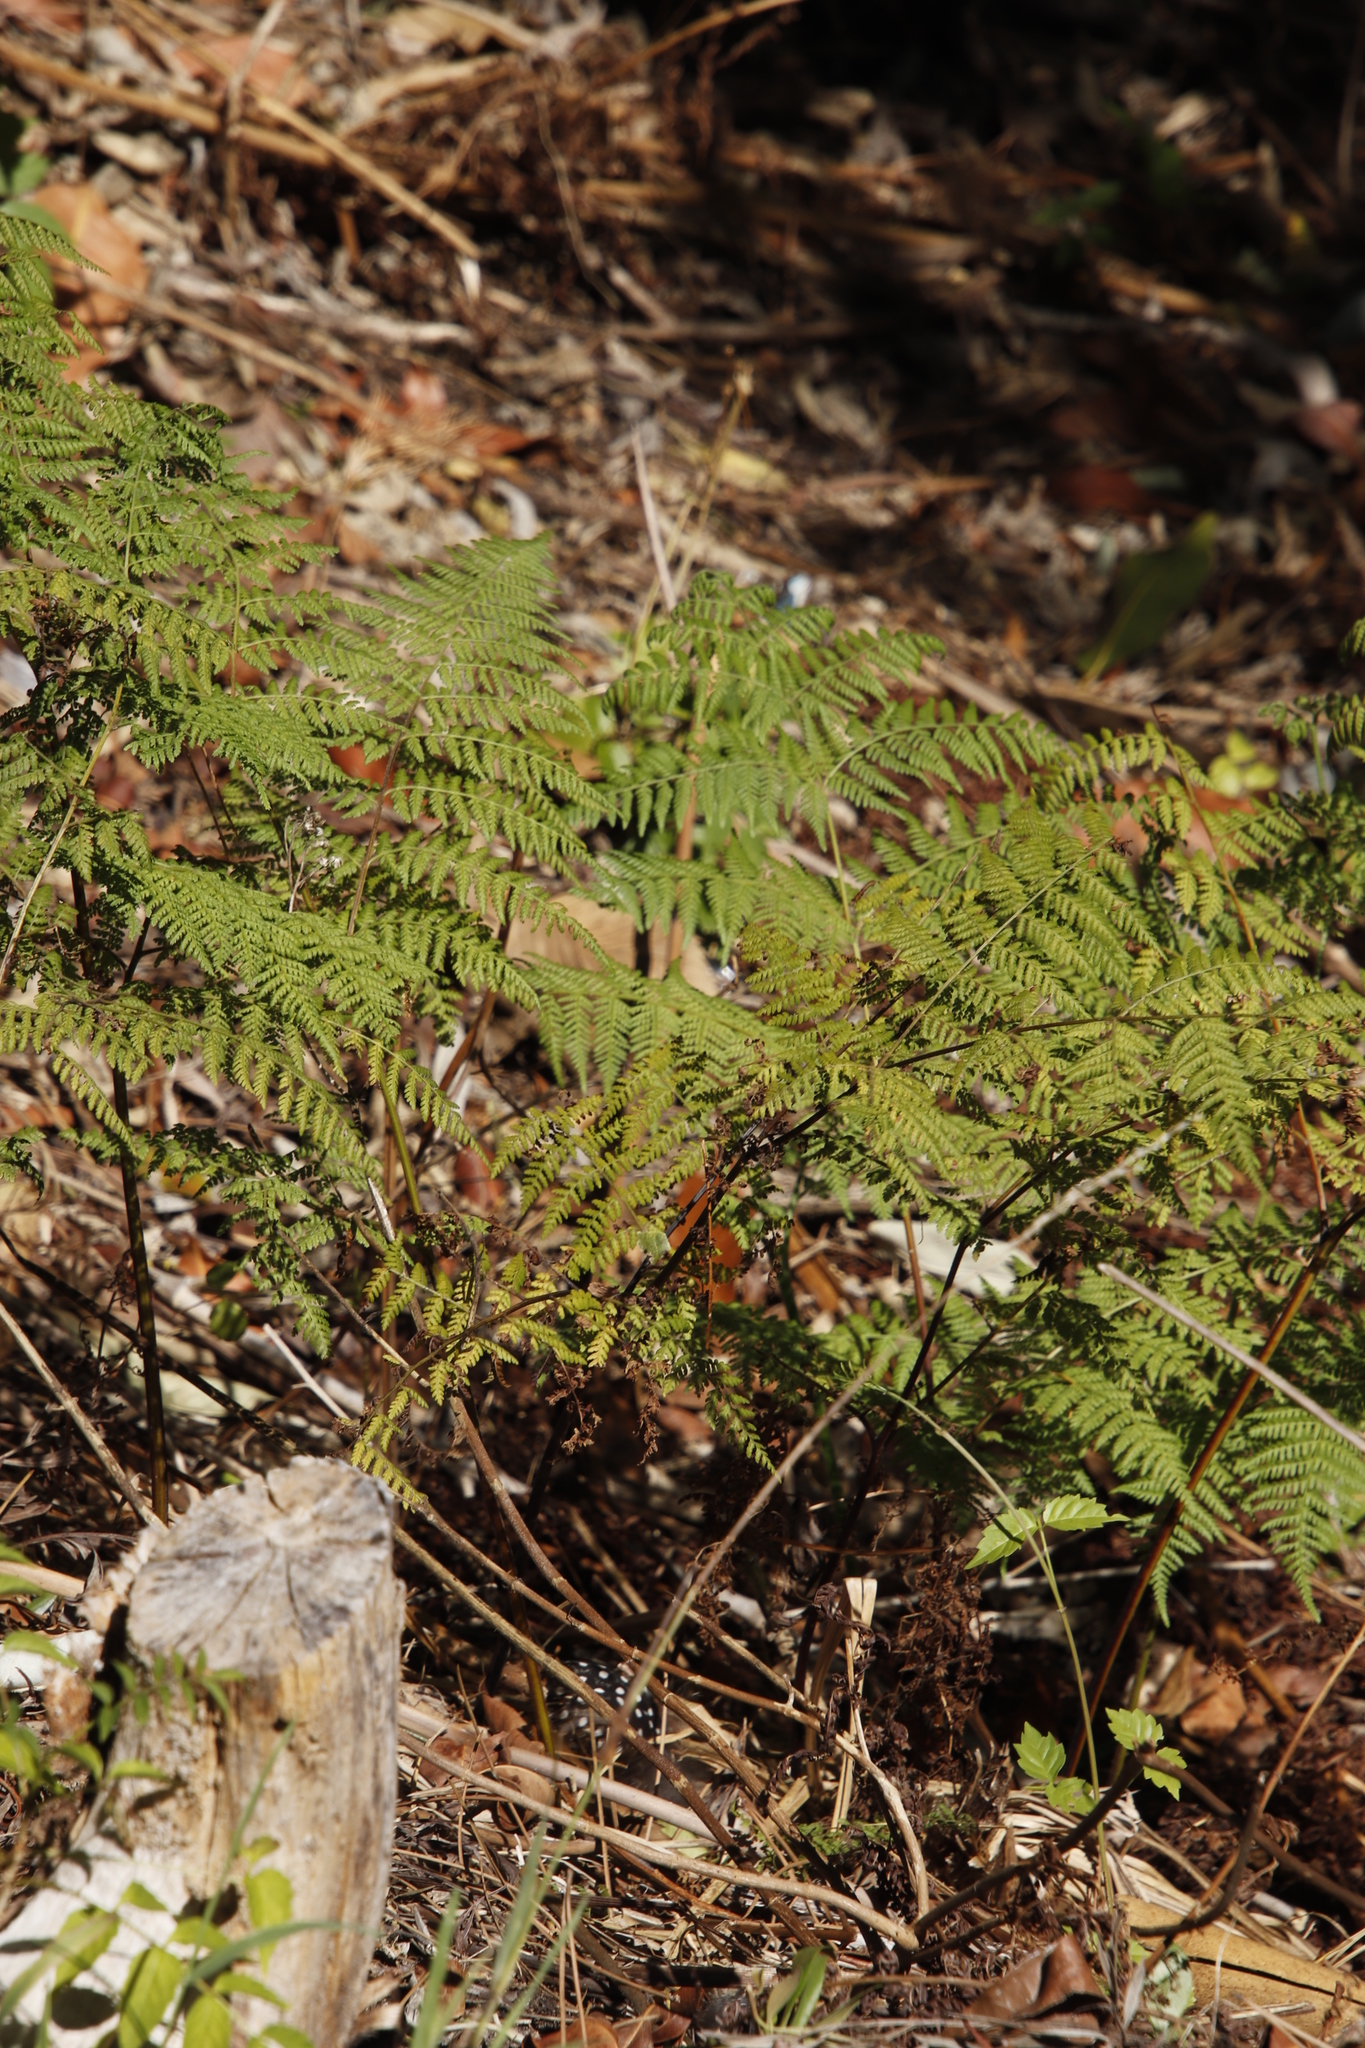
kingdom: Plantae
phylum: Tracheophyta
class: Polypodiopsida
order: Polypodiales
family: Dennstaedtiaceae
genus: Pteridium
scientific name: Pteridium aquilinum
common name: Bracken
